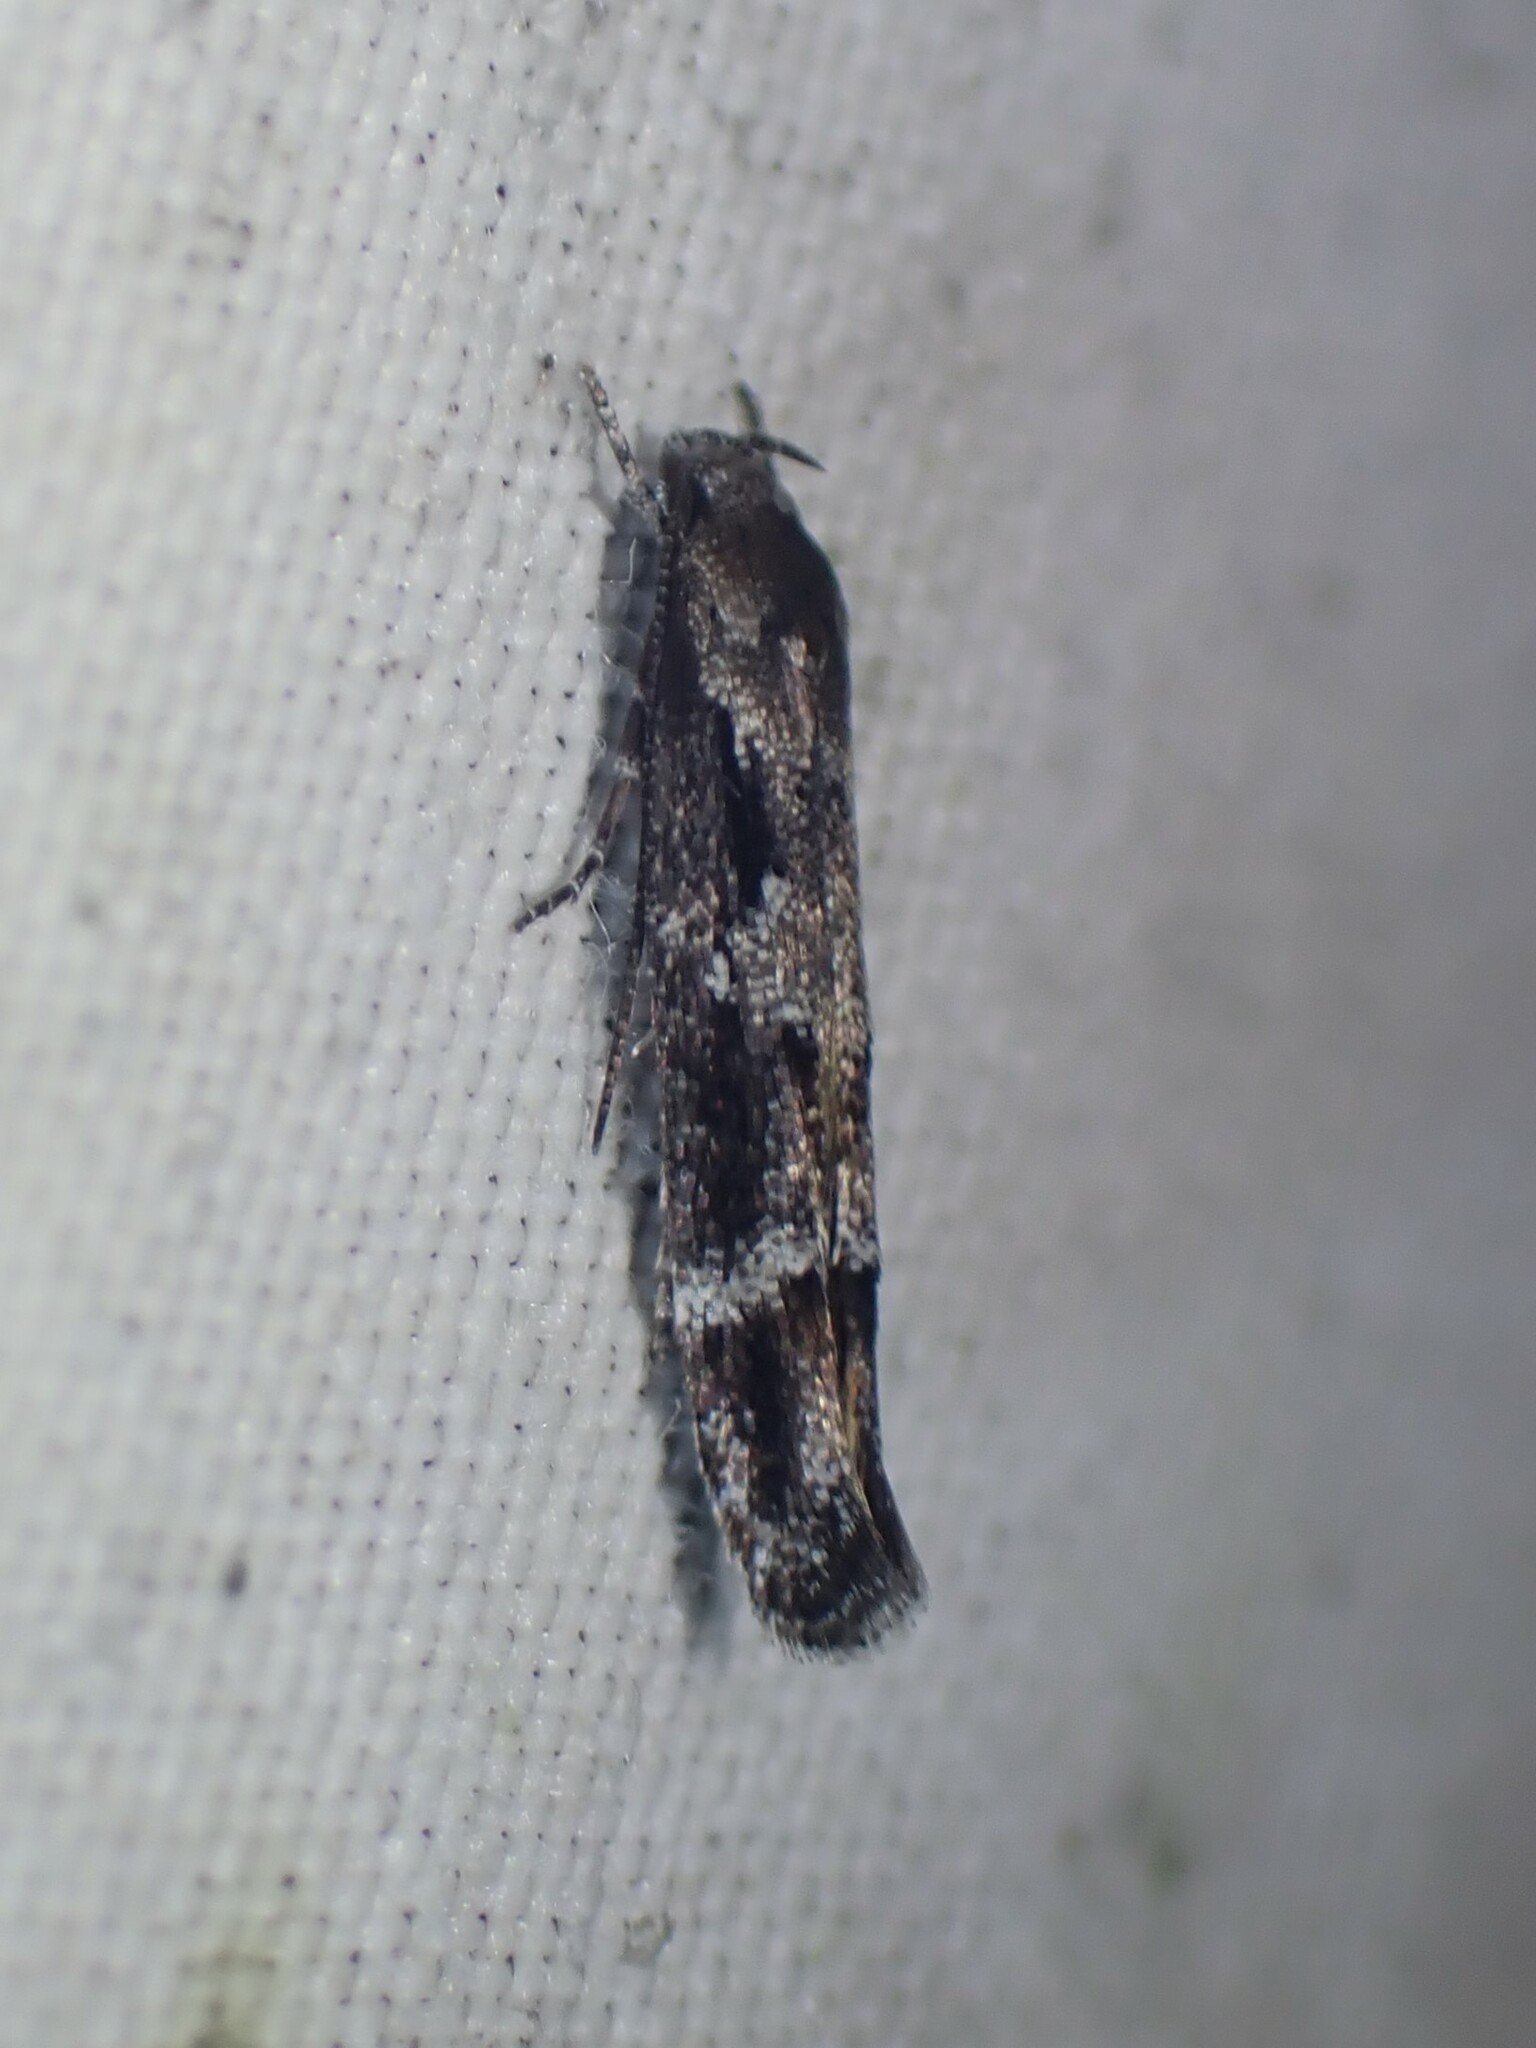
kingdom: Animalia
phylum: Arthropoda
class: Insecta
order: Lepidoptera
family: Momphidae
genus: Mompha
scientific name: Mompha subbistrigella
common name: Garden cosmet
